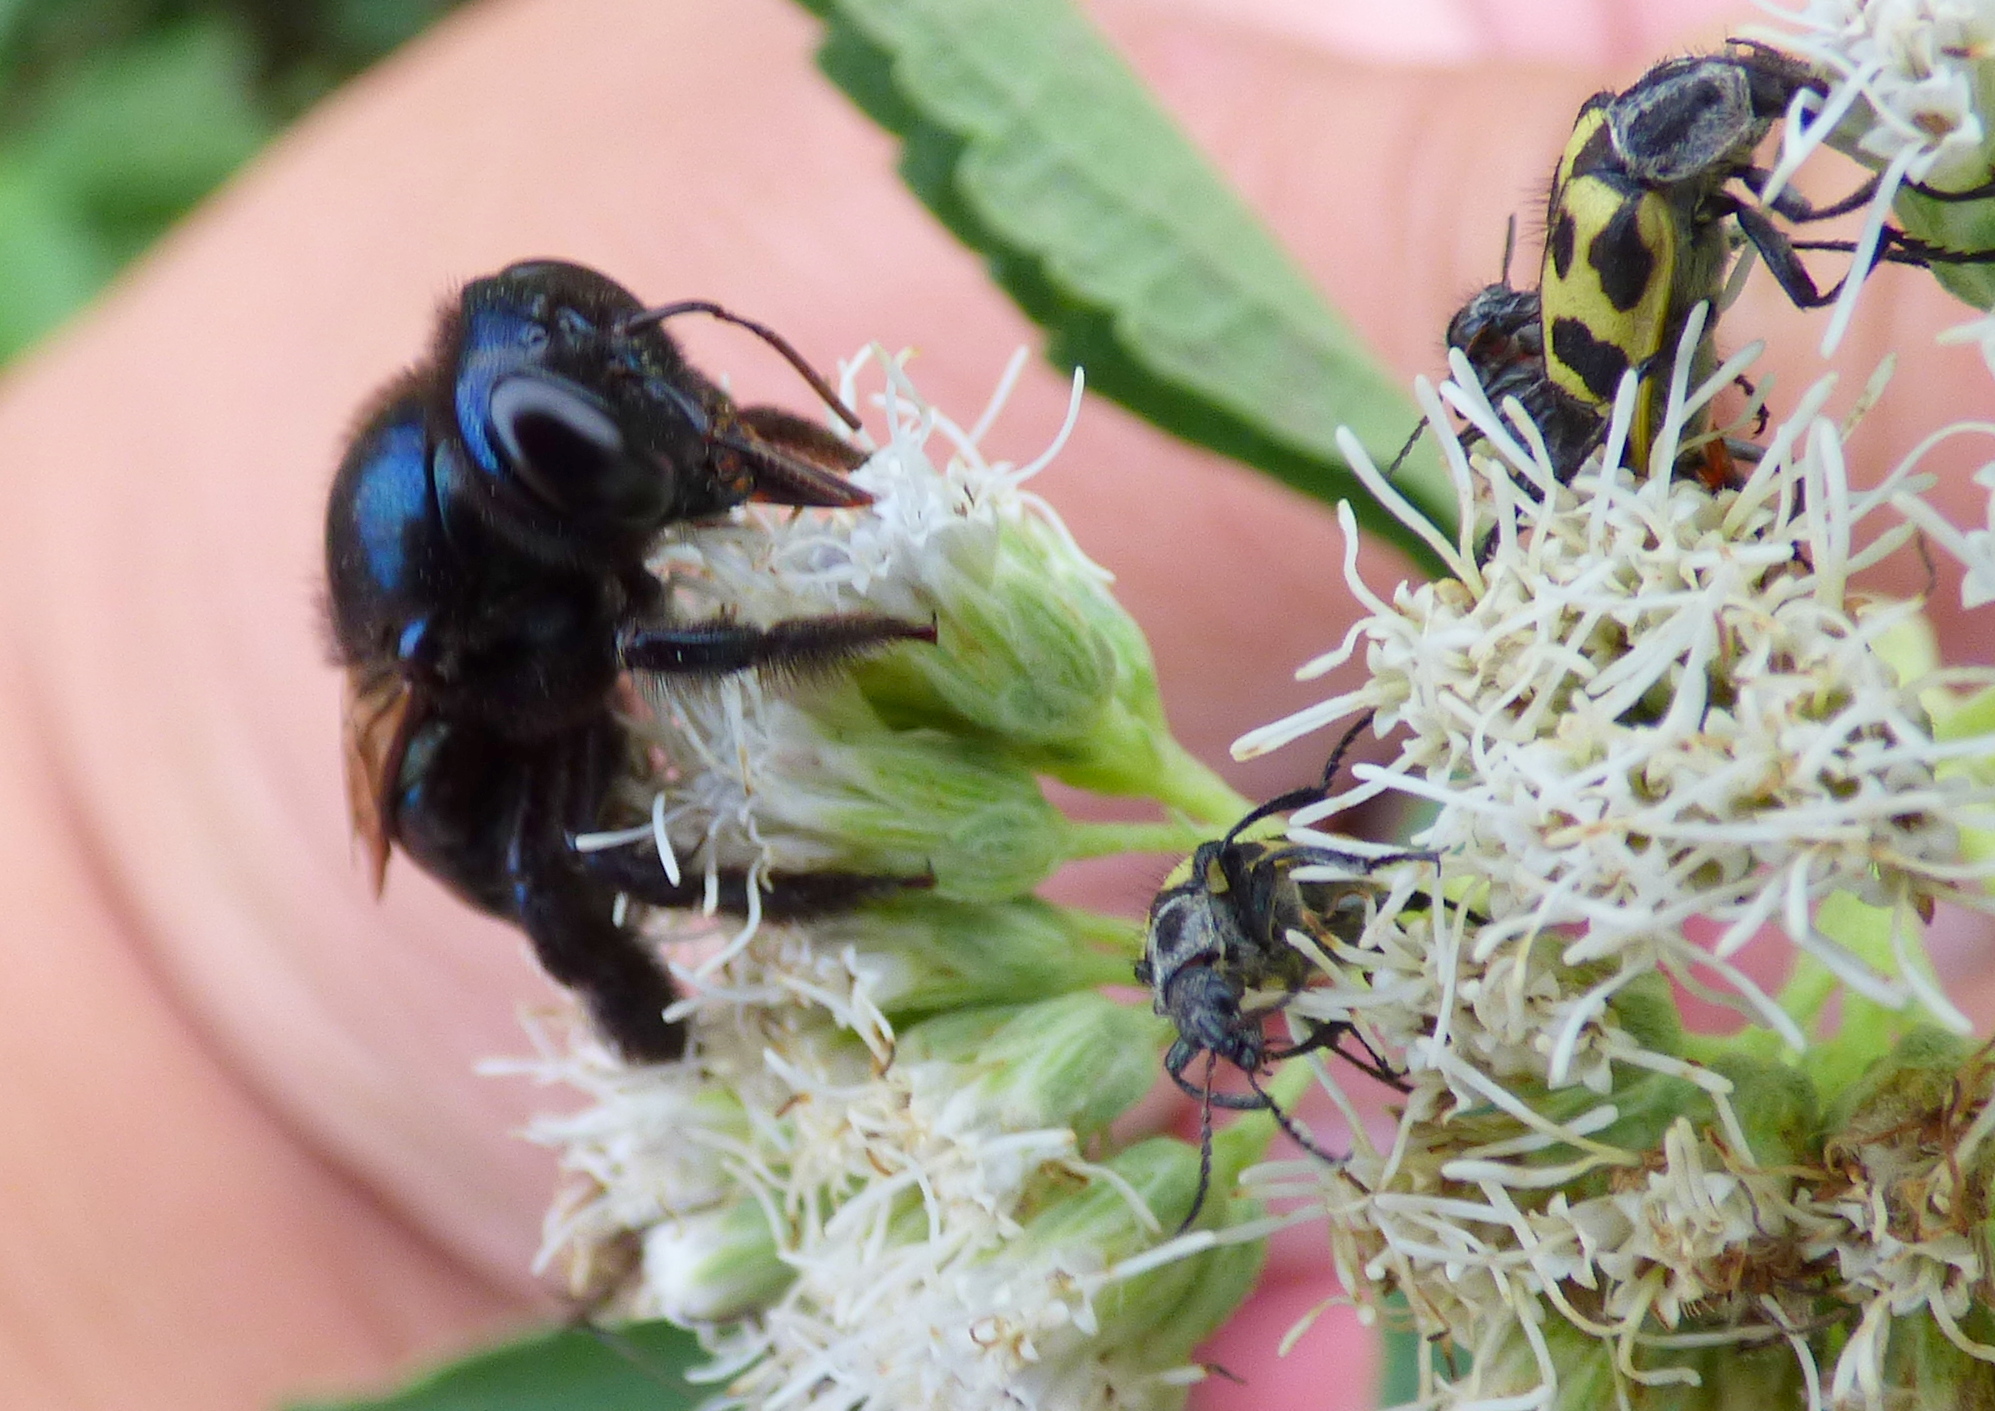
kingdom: Animalia
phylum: Arthropoda
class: Insecta
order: Hymenoptera
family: Apidae
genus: Xylocopa
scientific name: Xylocopa splendidula
